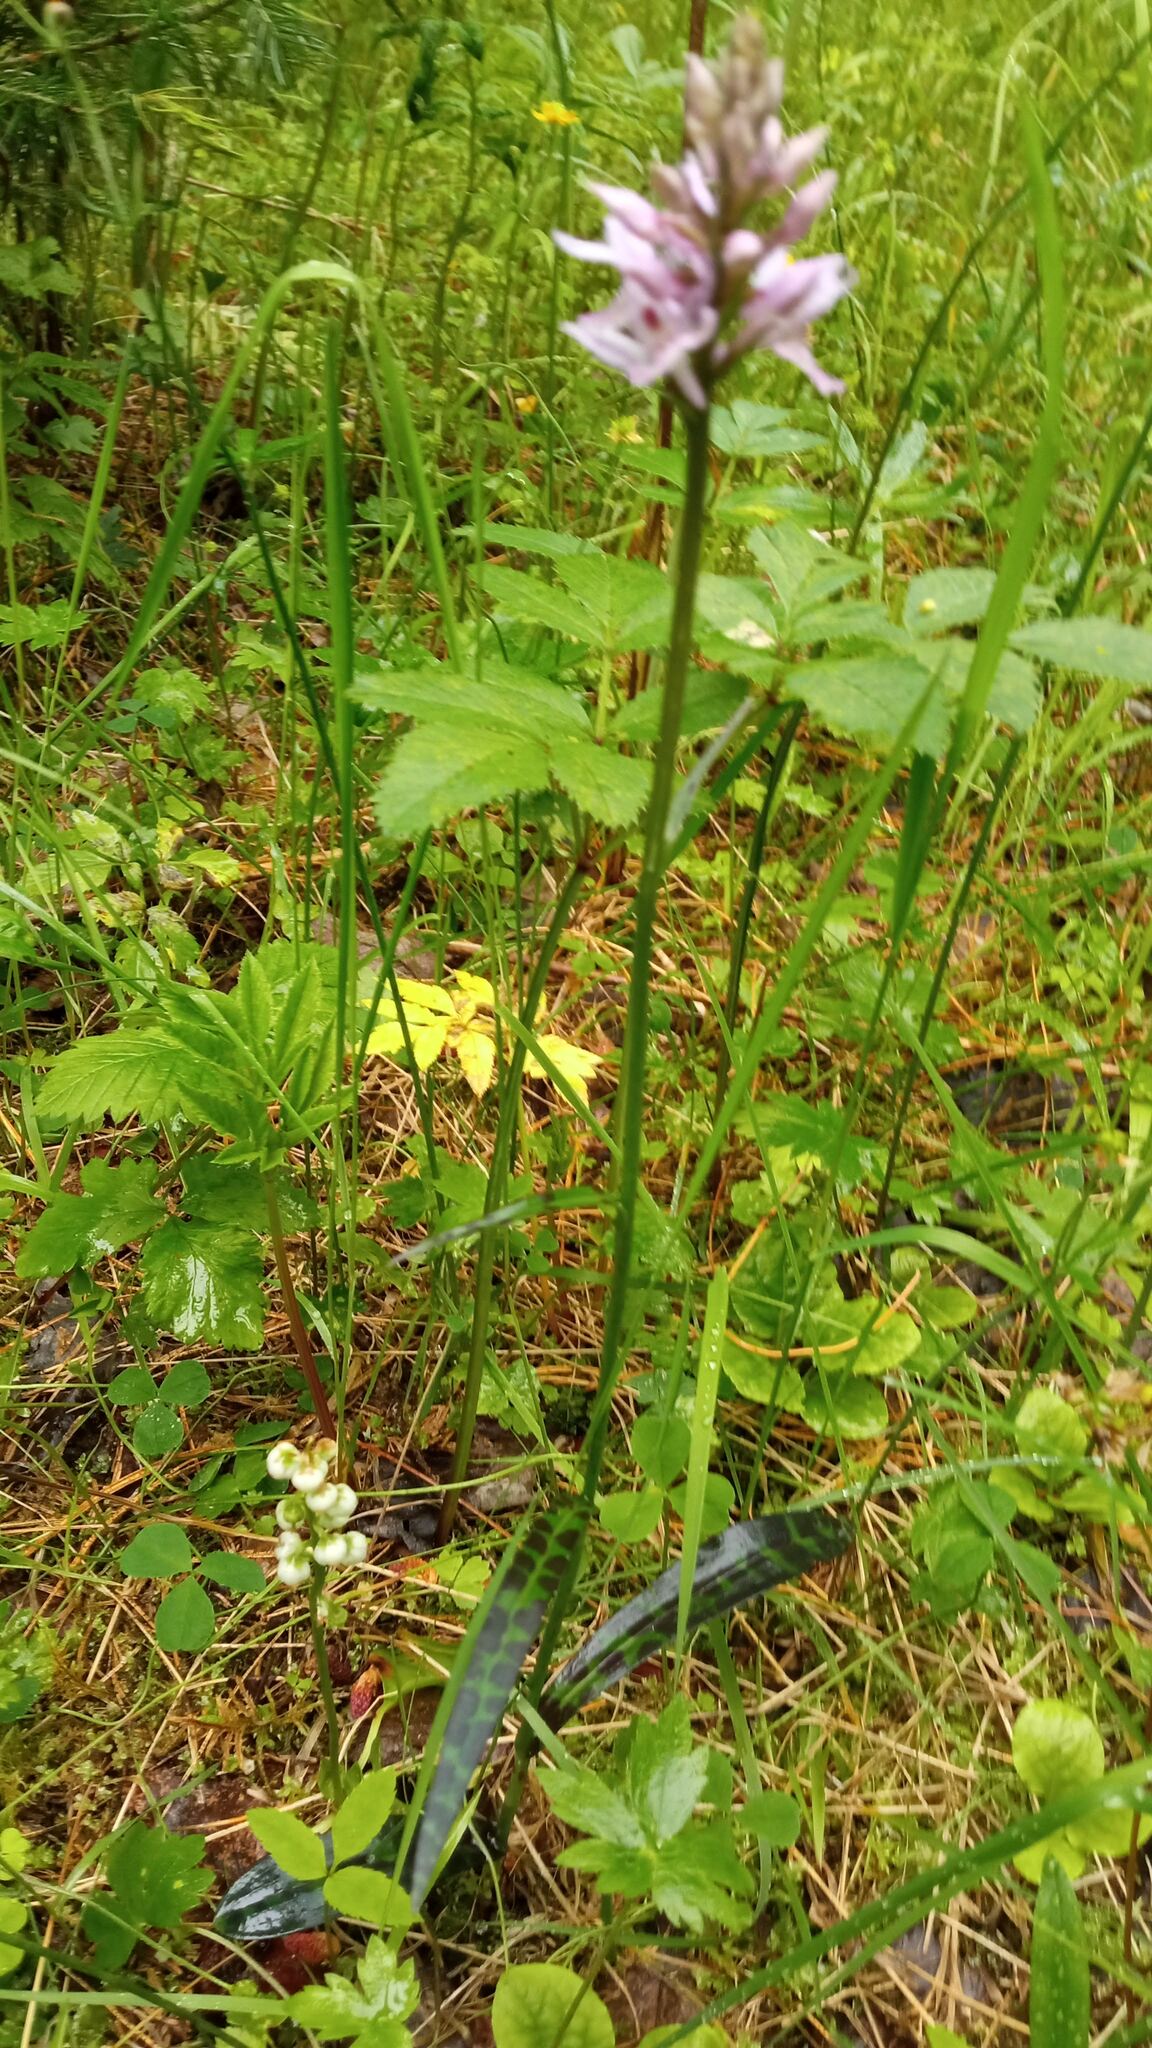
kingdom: Plantae
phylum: Tracheophyta
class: Liliopsida
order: Asparagales
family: Orchidaceae
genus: Dactylorhiza
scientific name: Dactylorhiza maculata
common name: Heath spotted-orchid
